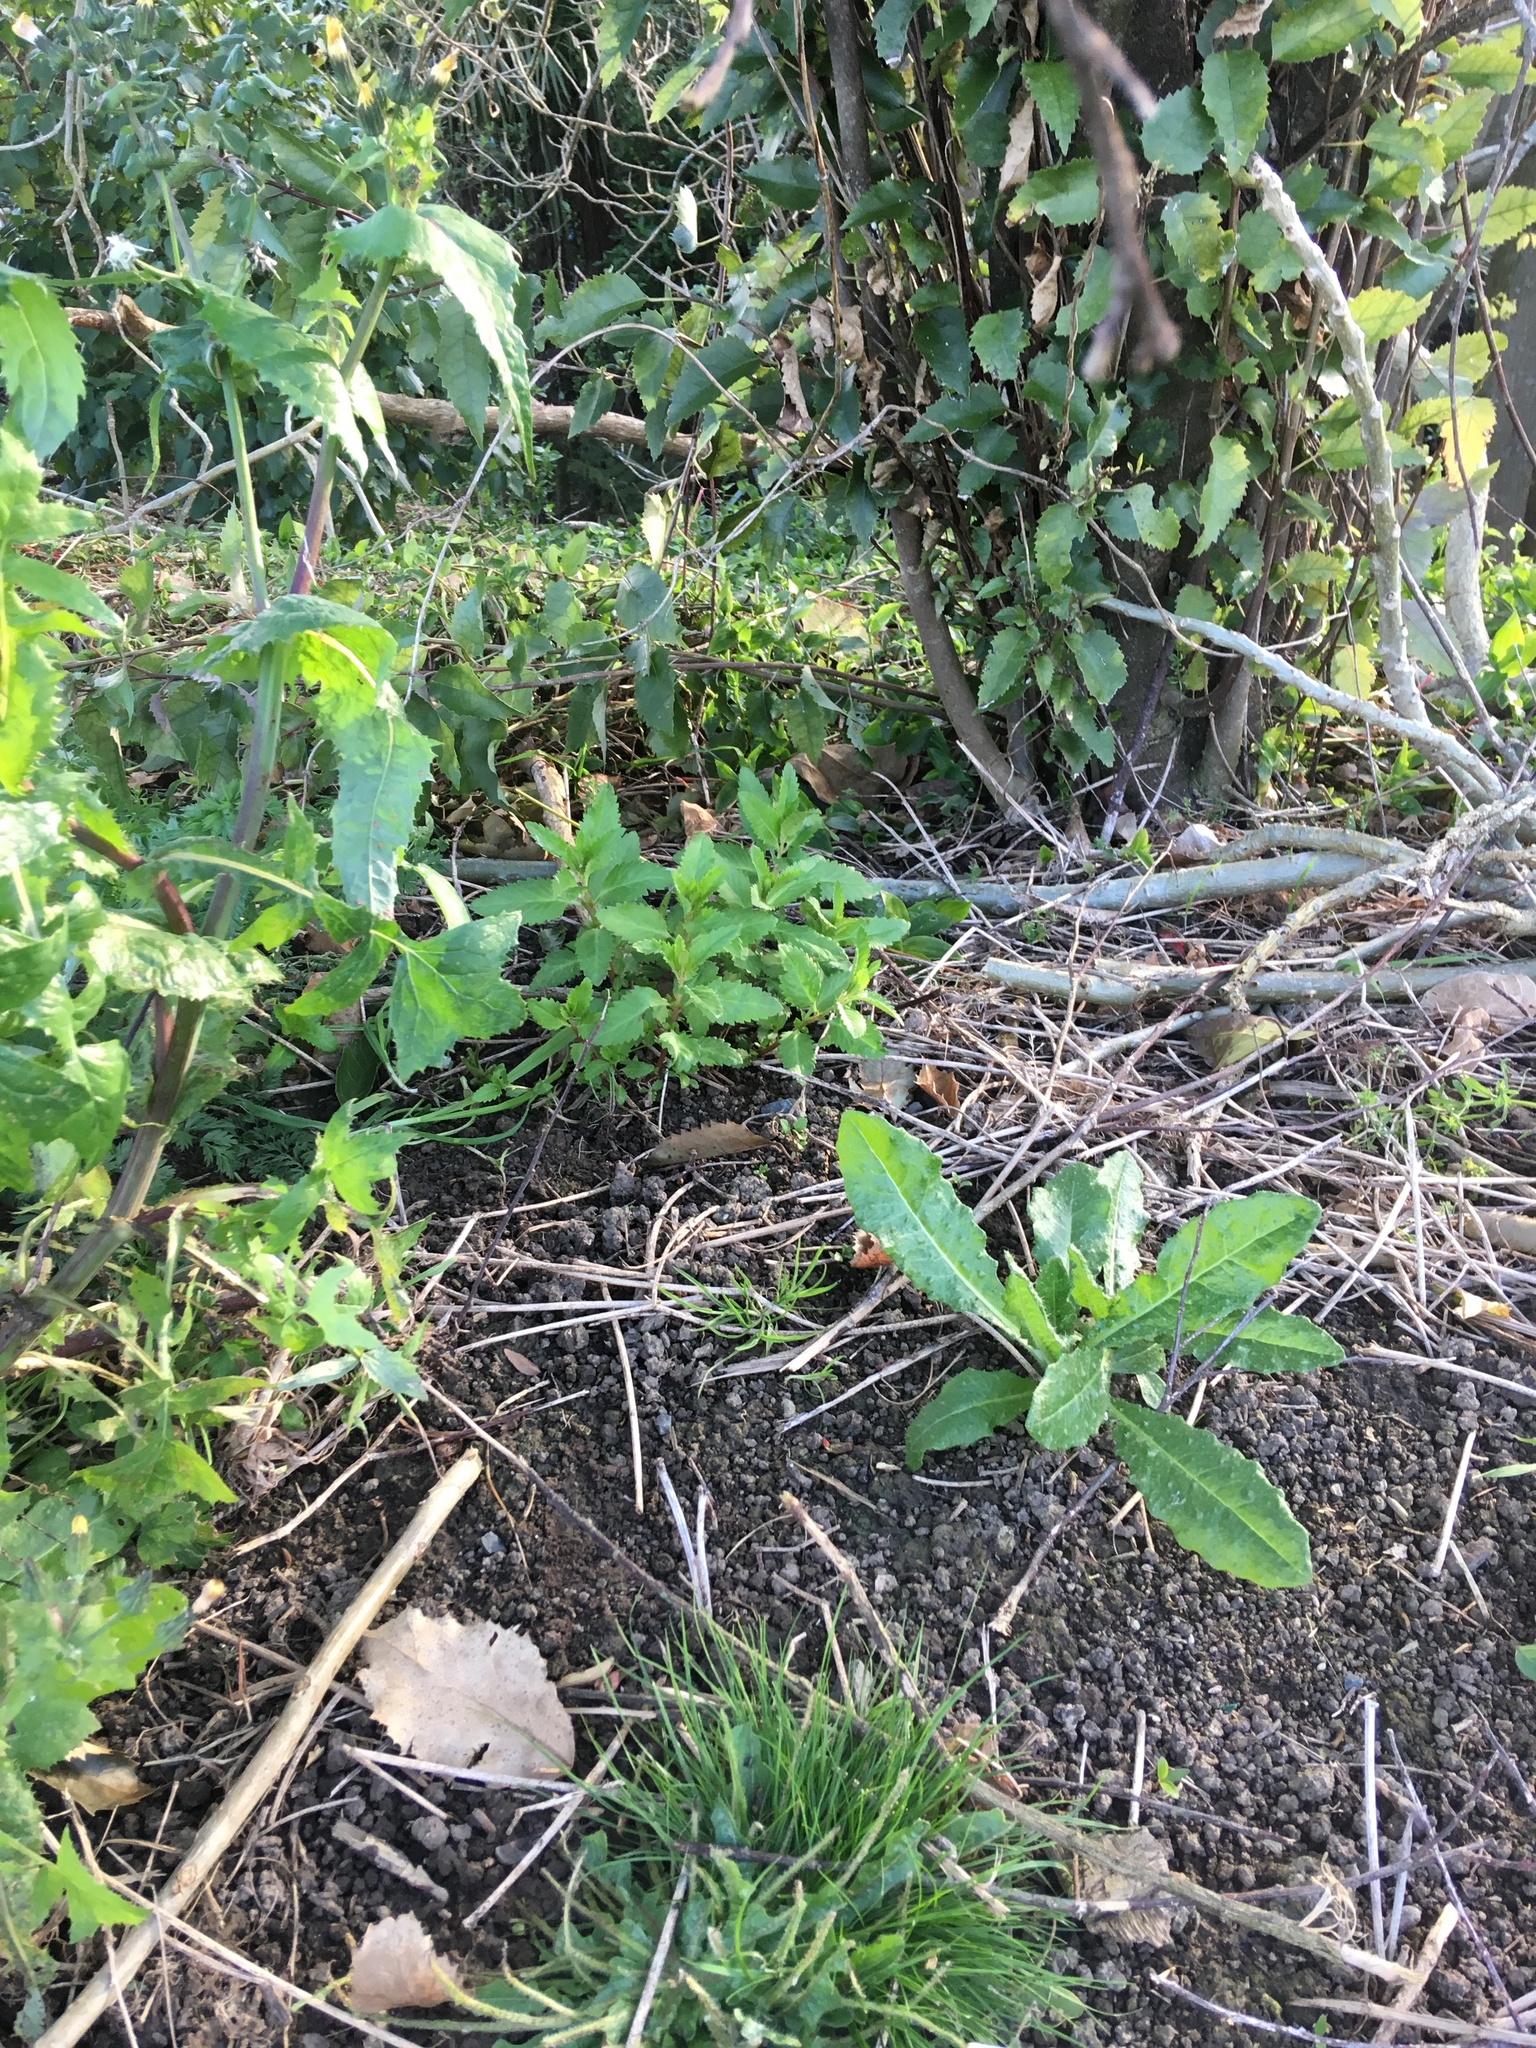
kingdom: Plantae
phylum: Tracheophyta
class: Magnoliopsida
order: Saxifragales
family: Haloragaceae
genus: Haloragis
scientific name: Haloragis erecta
